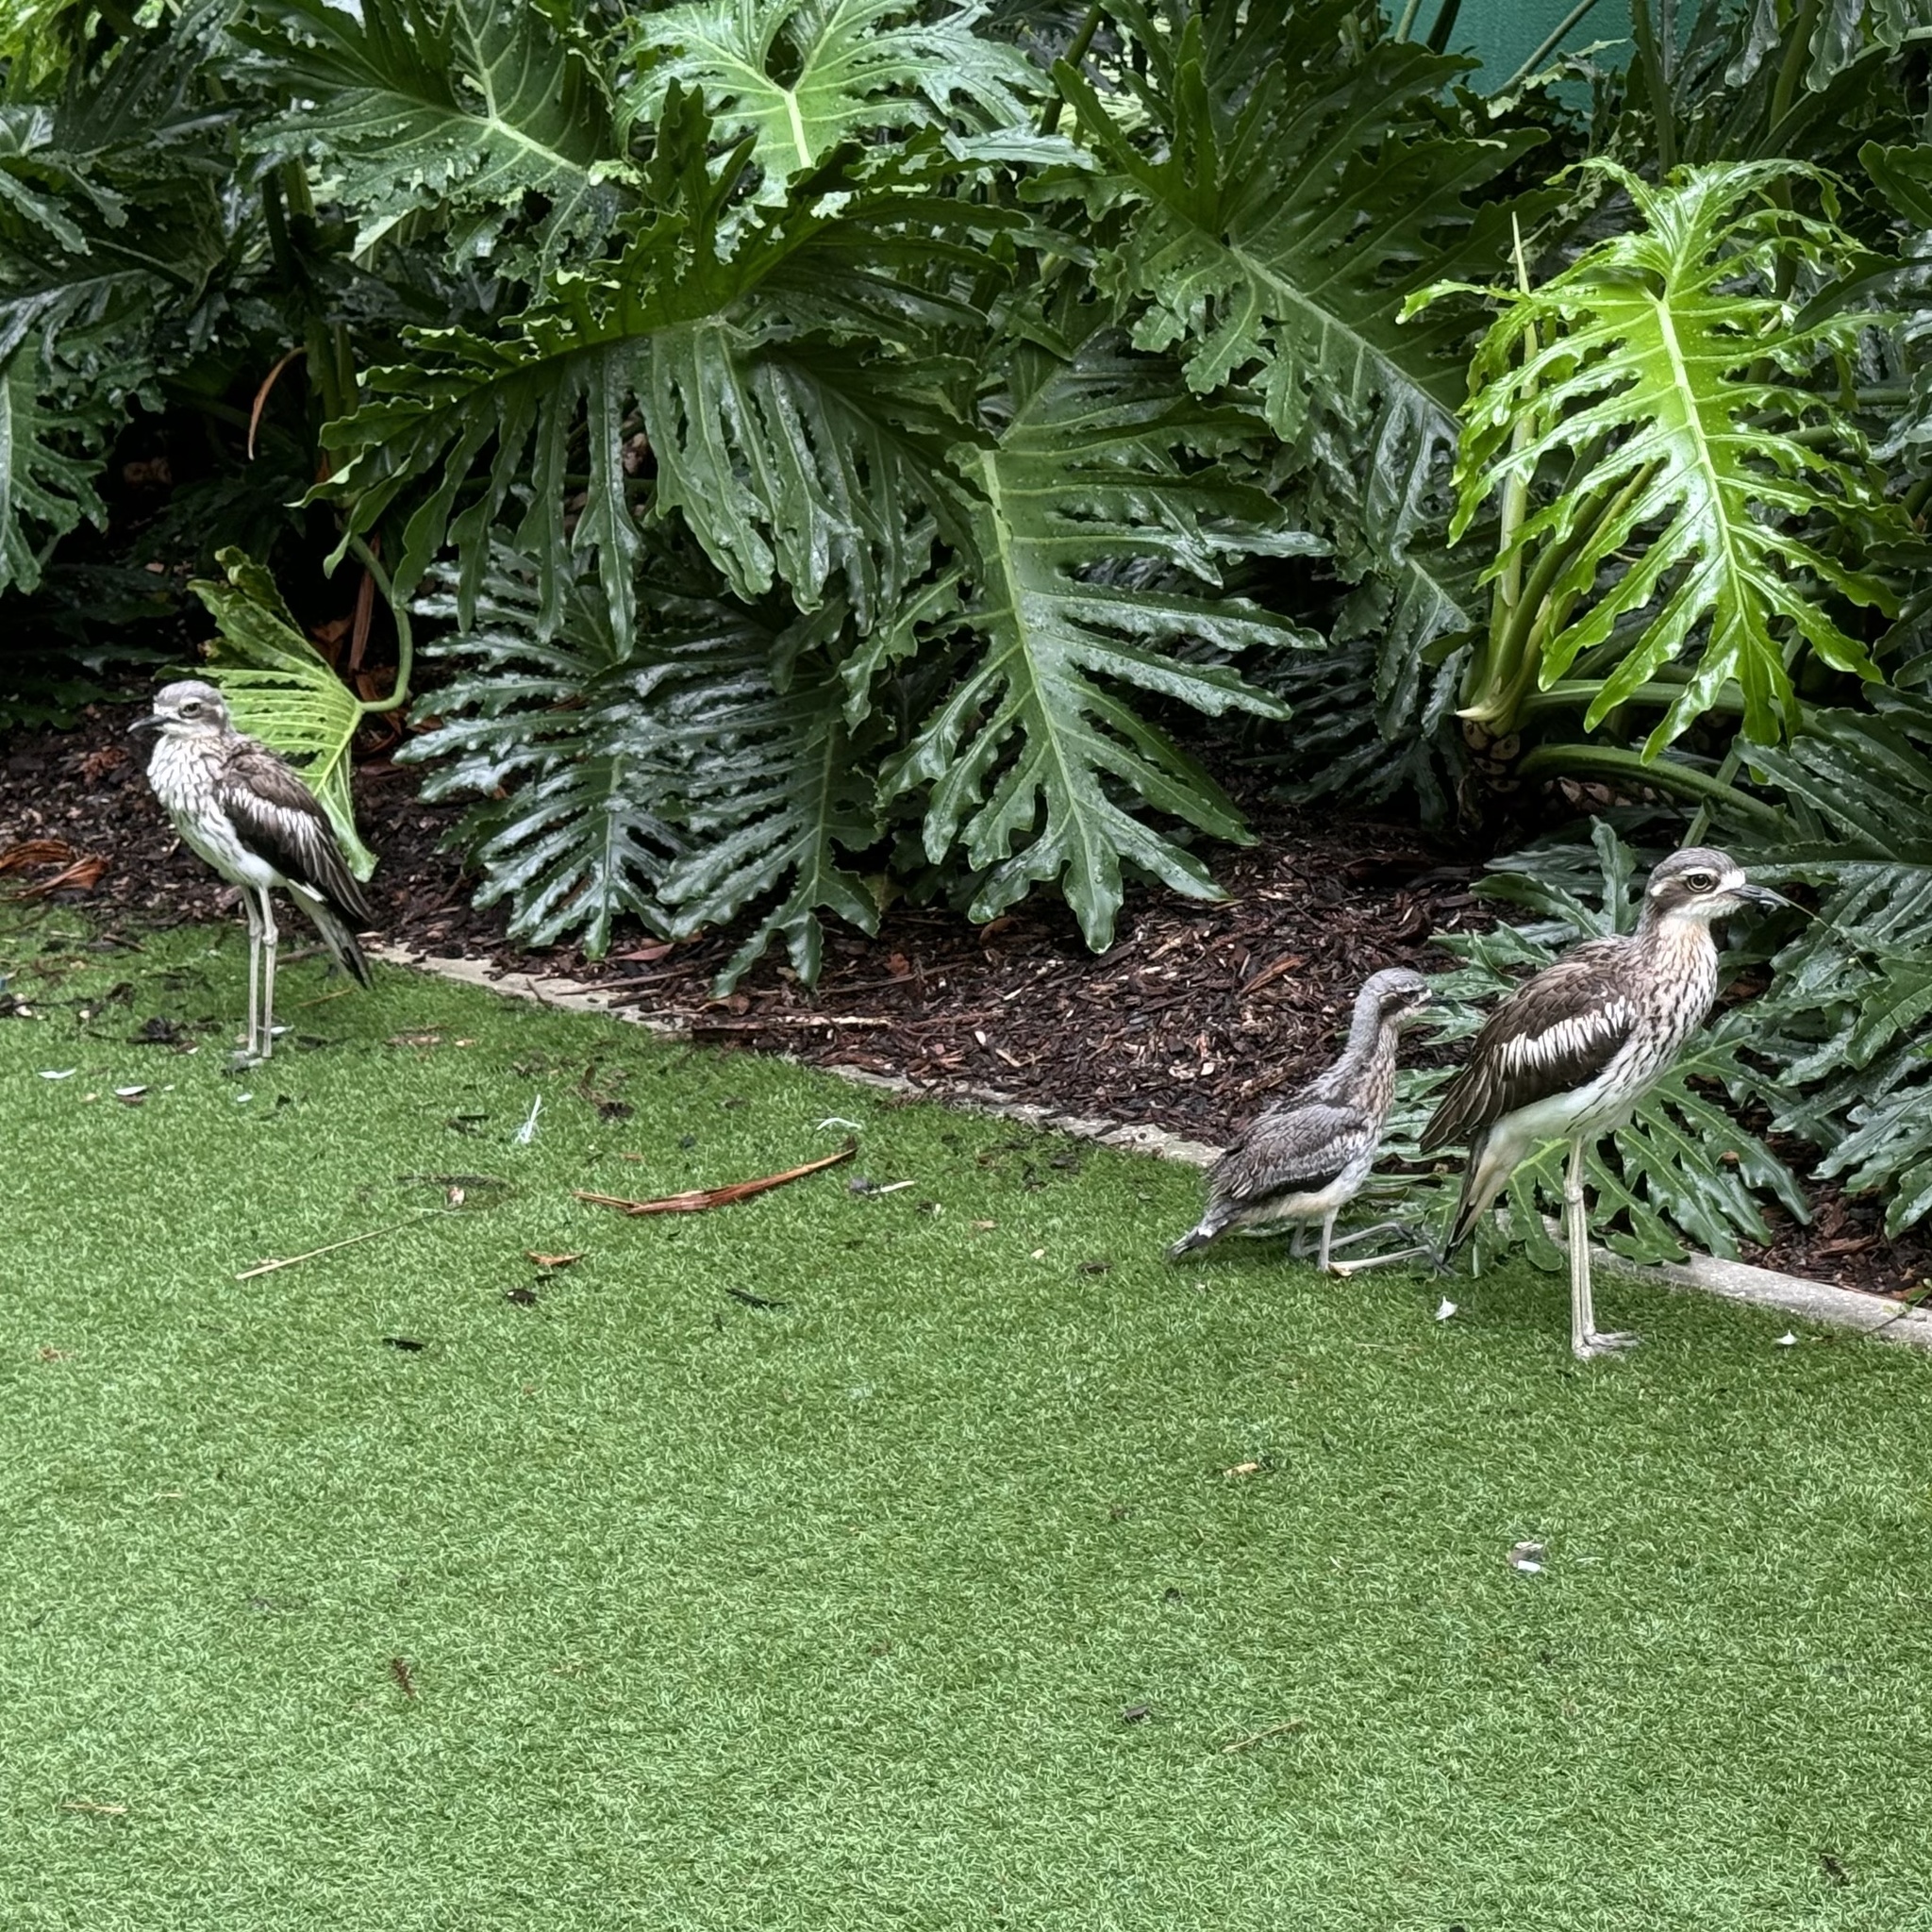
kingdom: Animalia
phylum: Chordata
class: Aves
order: Charadriiformes
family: Burhinidae
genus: Burhinus
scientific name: Burhinus grallarius
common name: Bush stone-curlew
